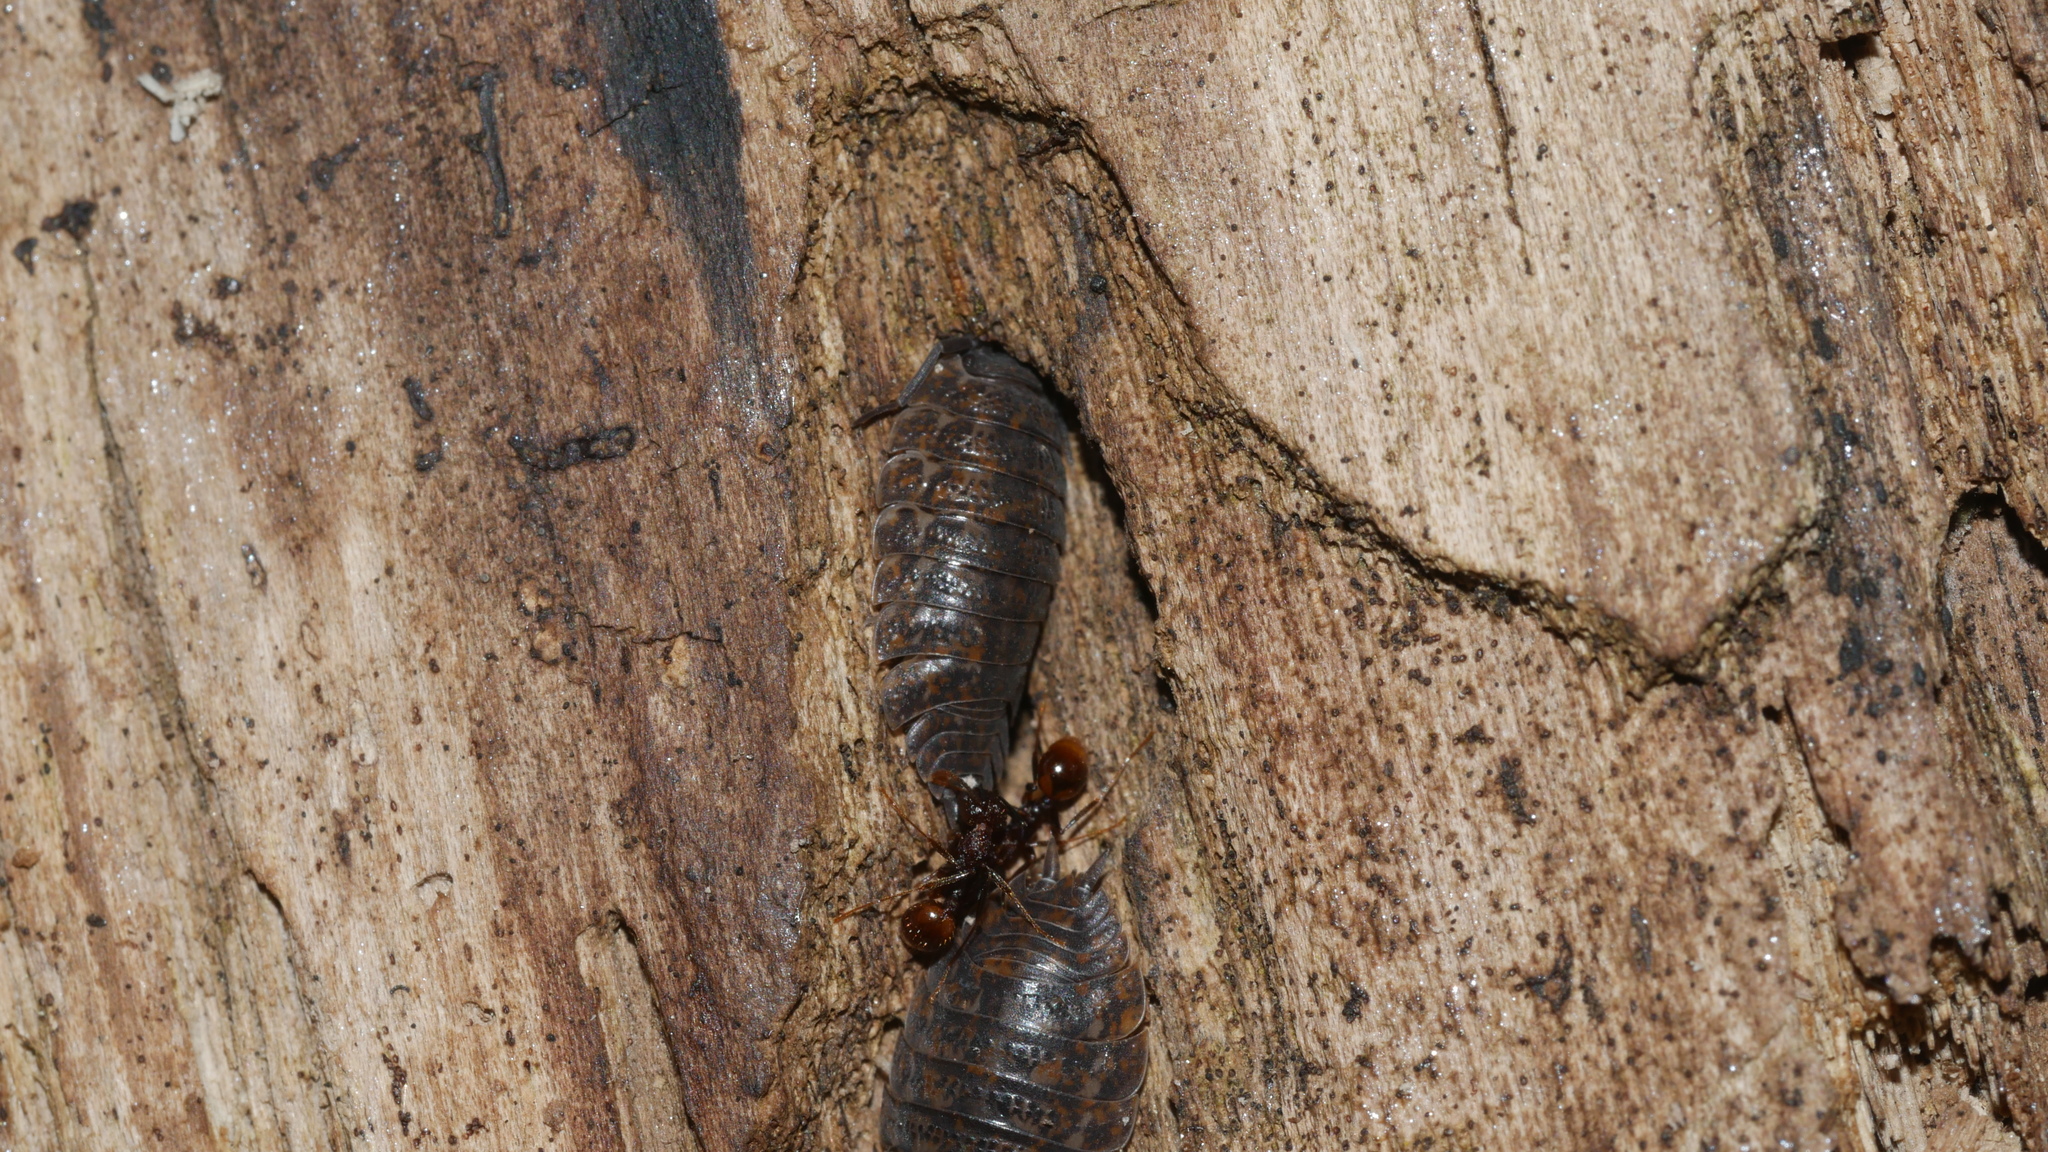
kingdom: Animalia
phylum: Arthropoda
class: Malacostraca
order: Isopoda
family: Trachelipodidae
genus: Trachelipus
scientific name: Trachelipus rathkii
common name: Isopod
